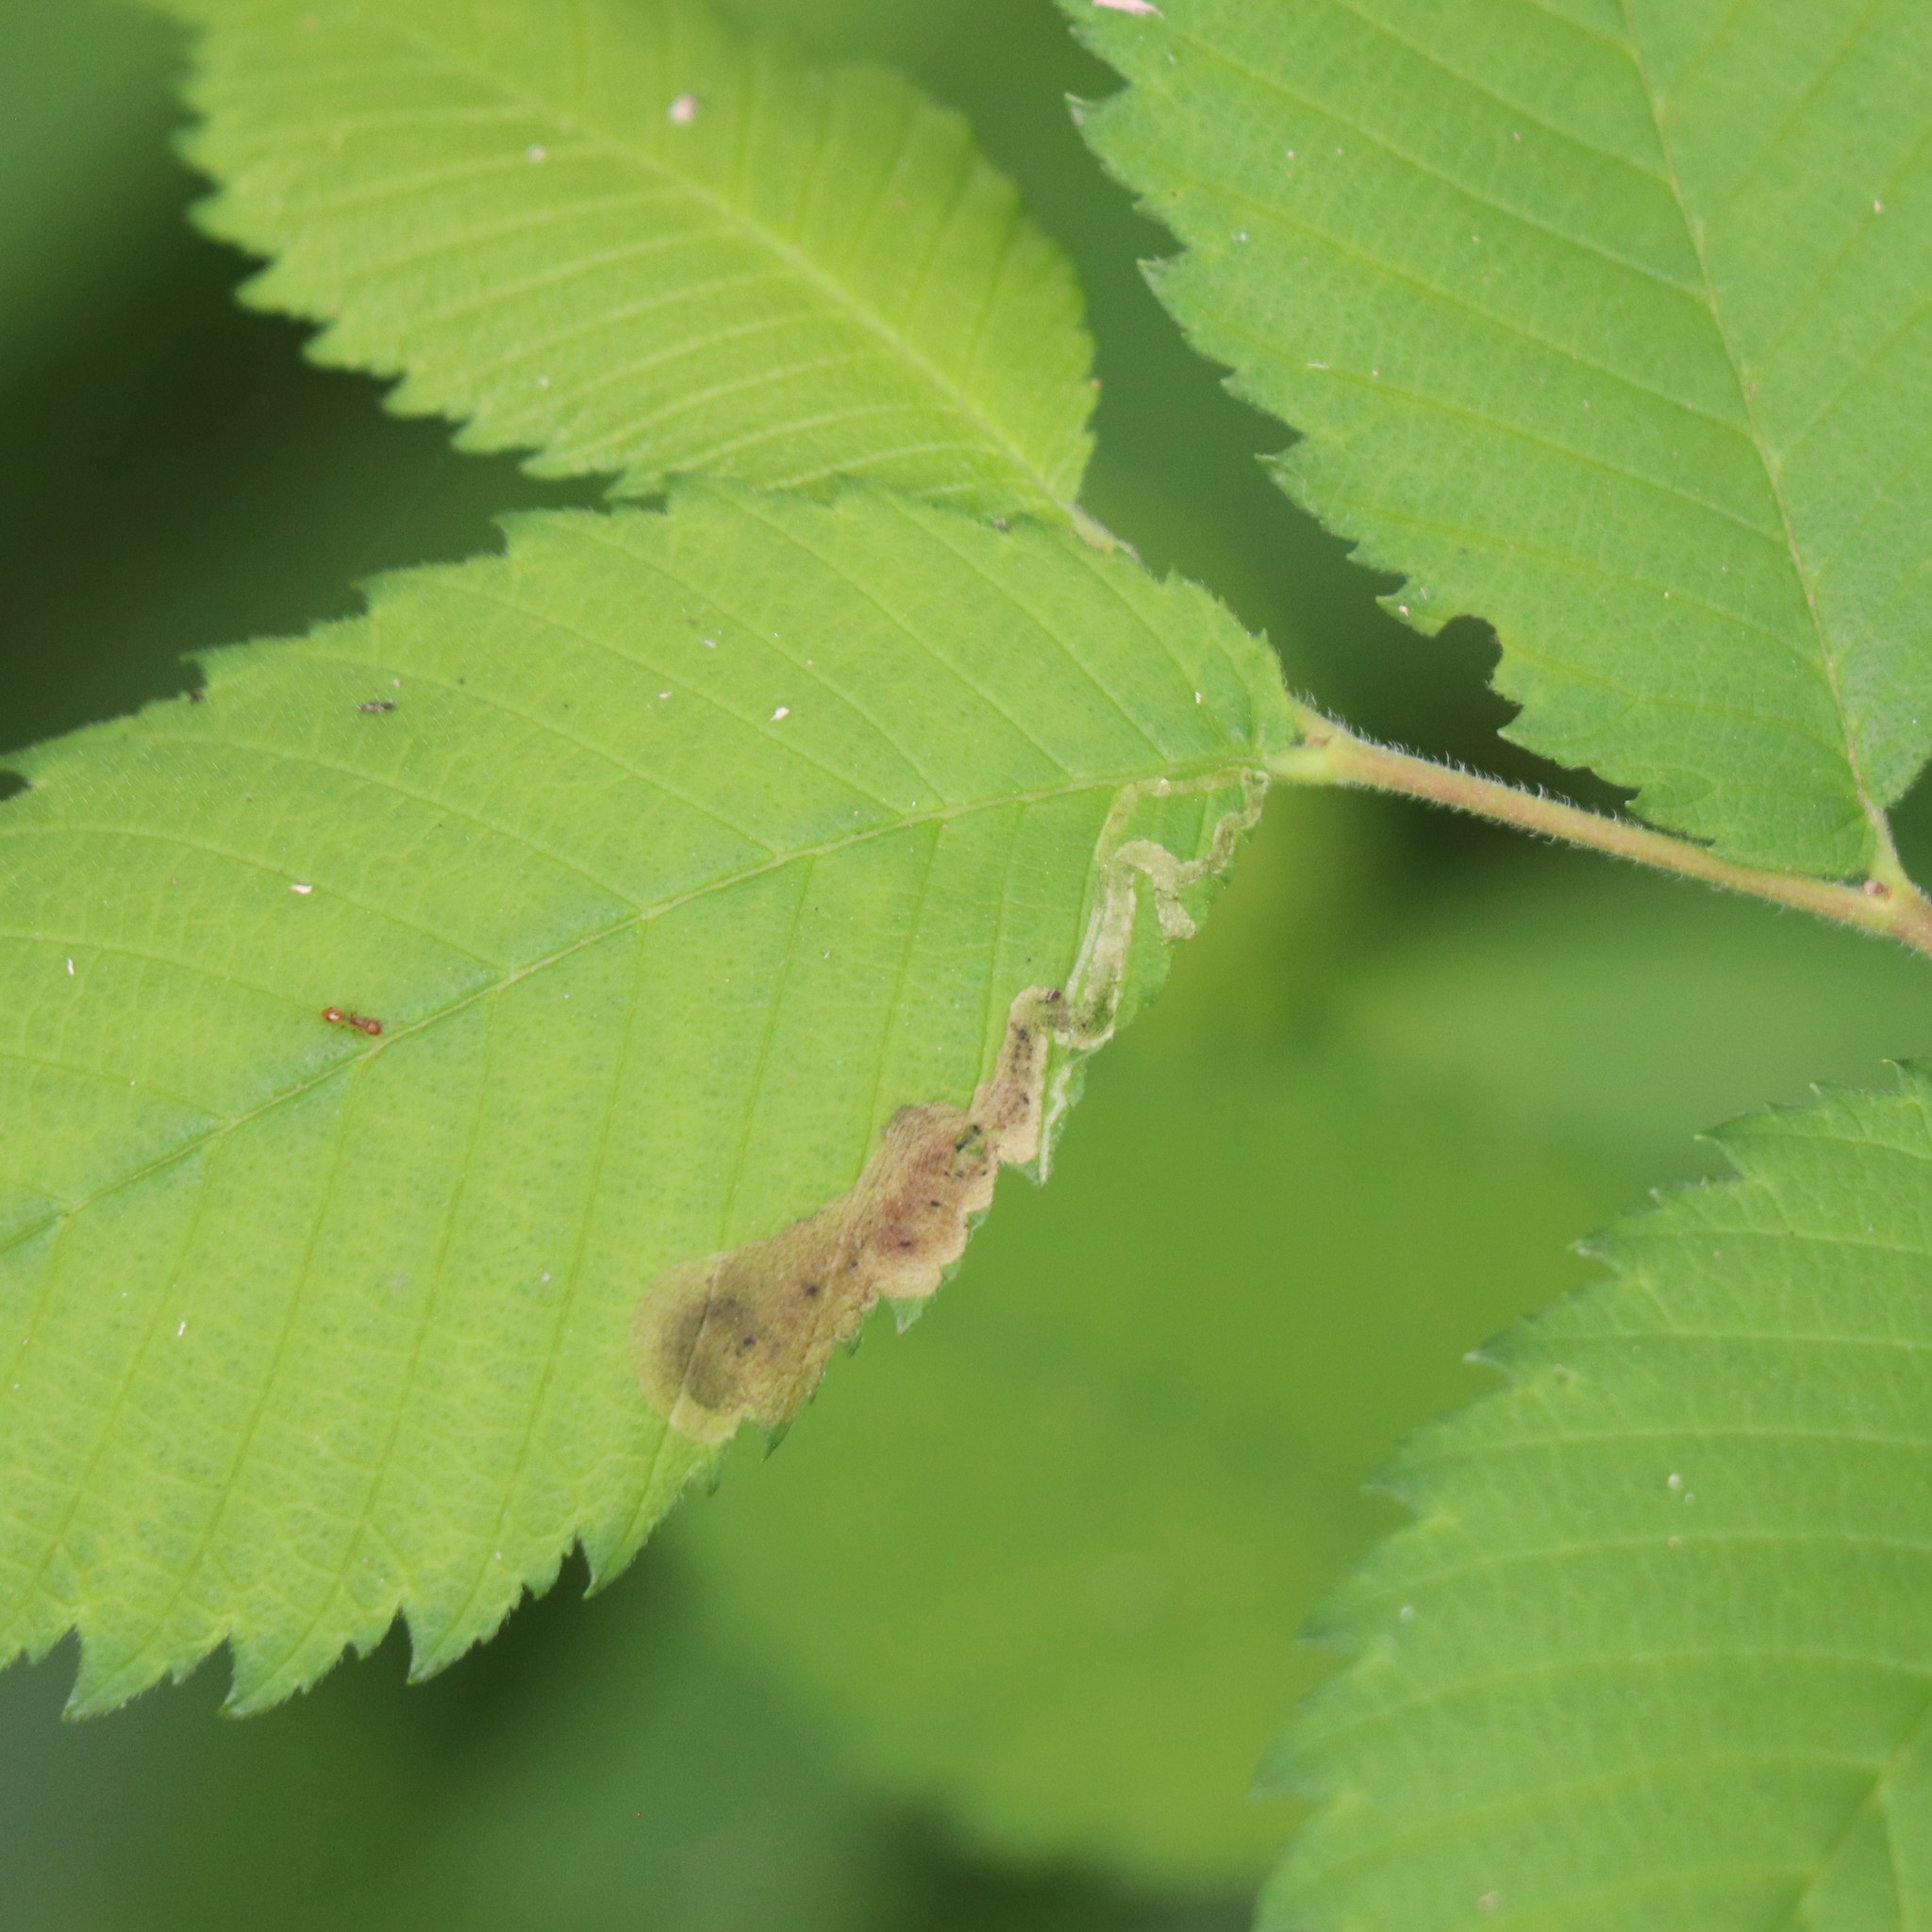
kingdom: Animalia
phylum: Arthropoda
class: Insecta
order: Diptera
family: Agromyzidae
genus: Agromyza
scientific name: Agromyza aristata
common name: Elm agromyzid leafminer
